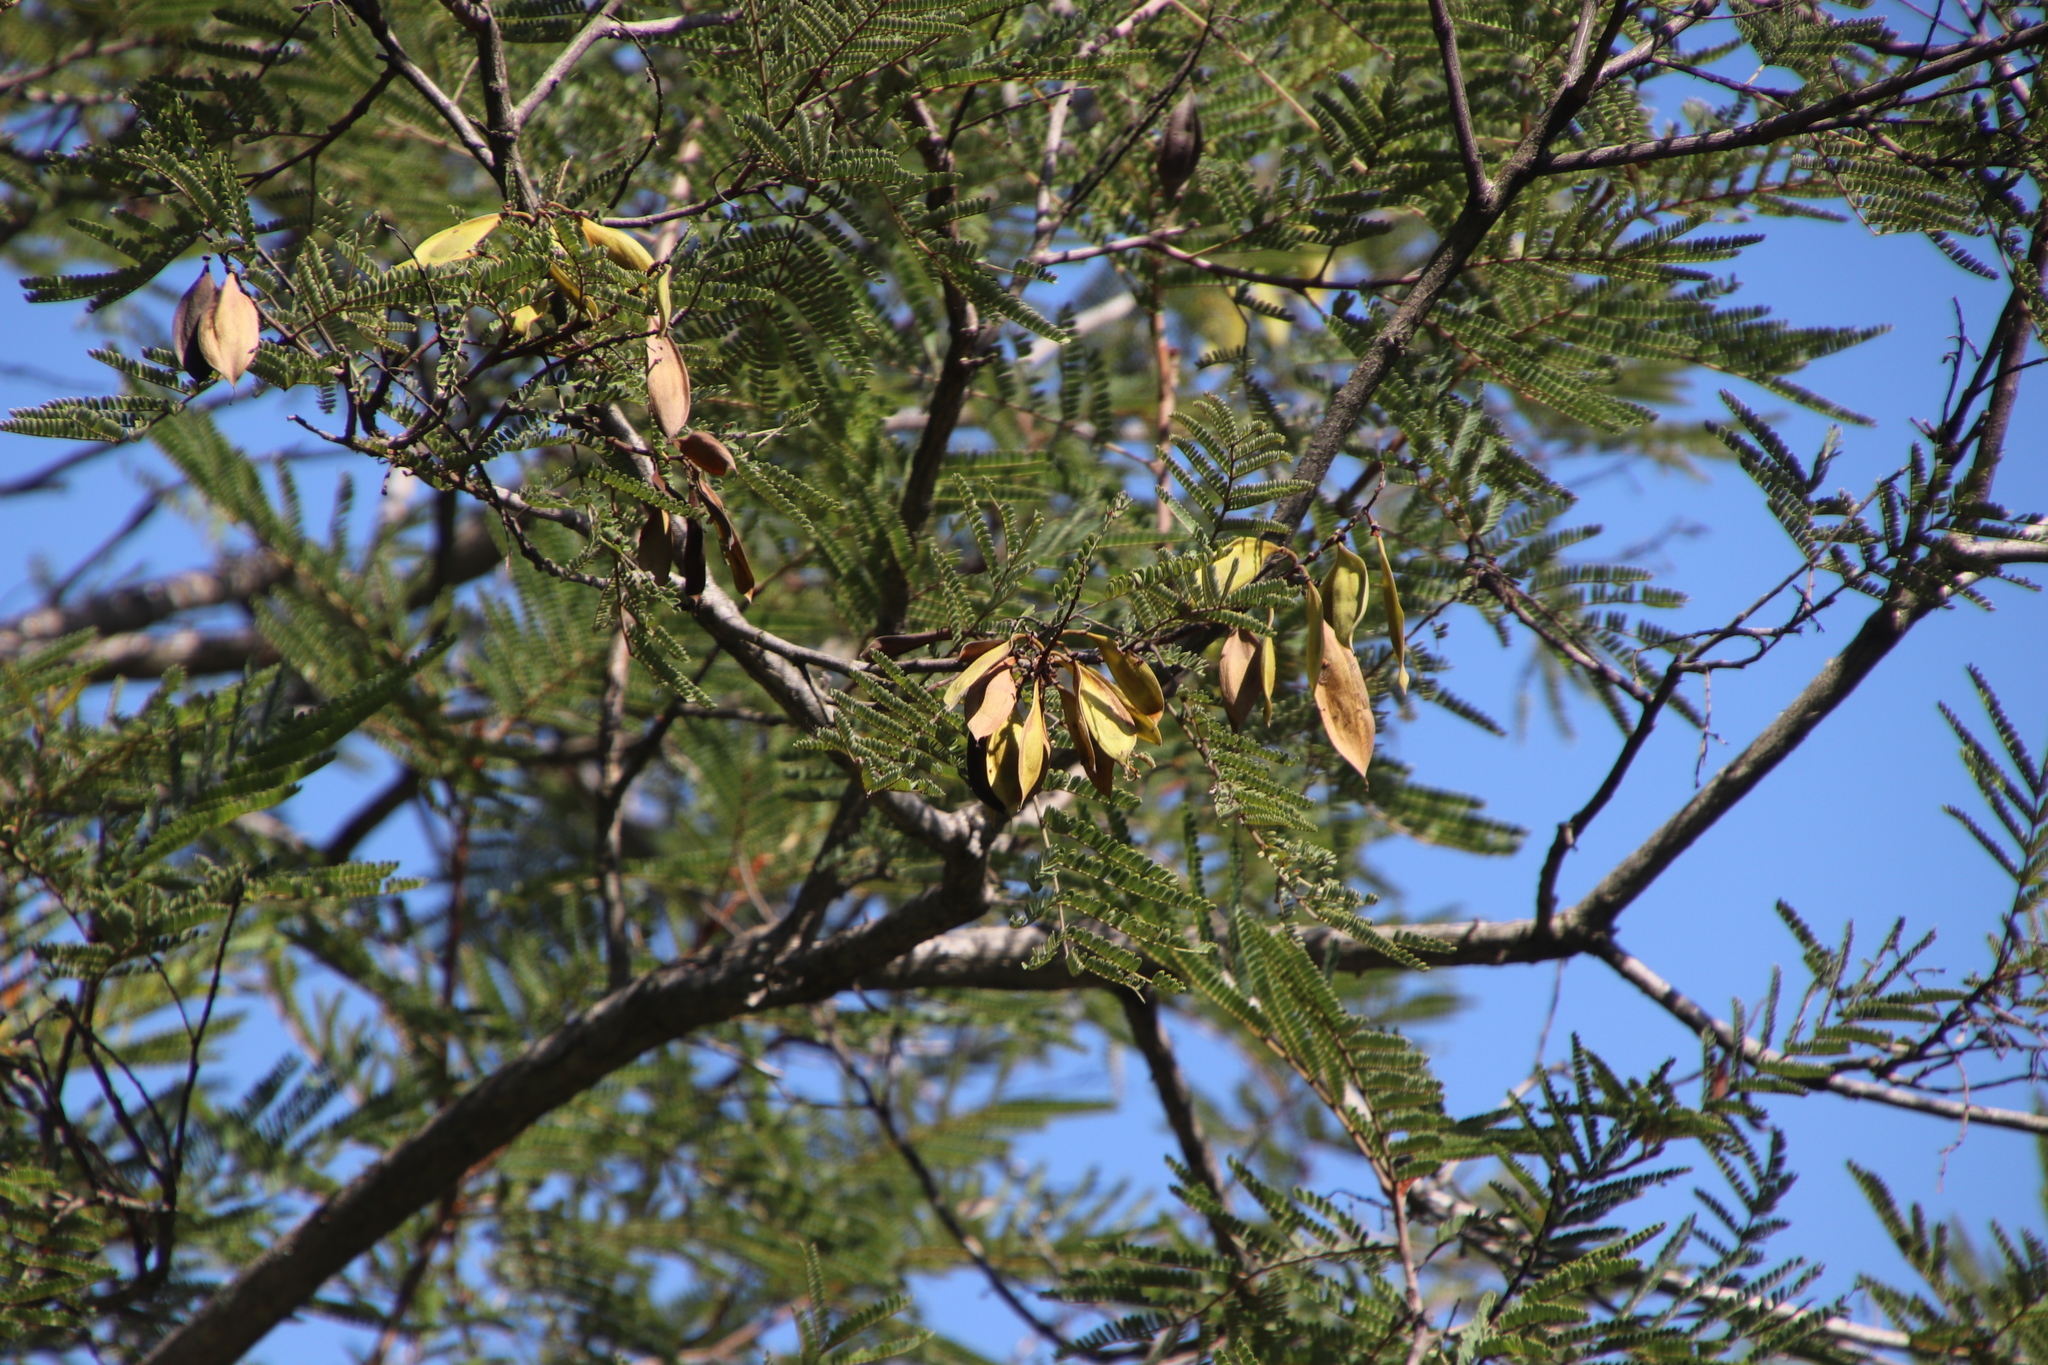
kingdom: Plantae
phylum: Tracheophyta
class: Magnoliopsida
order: Fabales
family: Fabaceae
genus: Peltophorum
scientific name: Peltophorum africanum
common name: African black wattle
